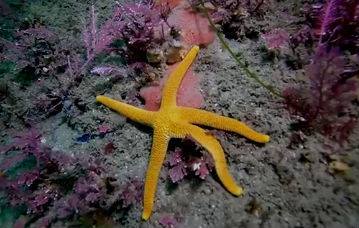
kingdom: Animalia
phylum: Echinodermata
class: Asteroidea
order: Spinulosida
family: Echinasteridae
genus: Henricia
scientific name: Henricia leviuscula
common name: Pacific blood star
